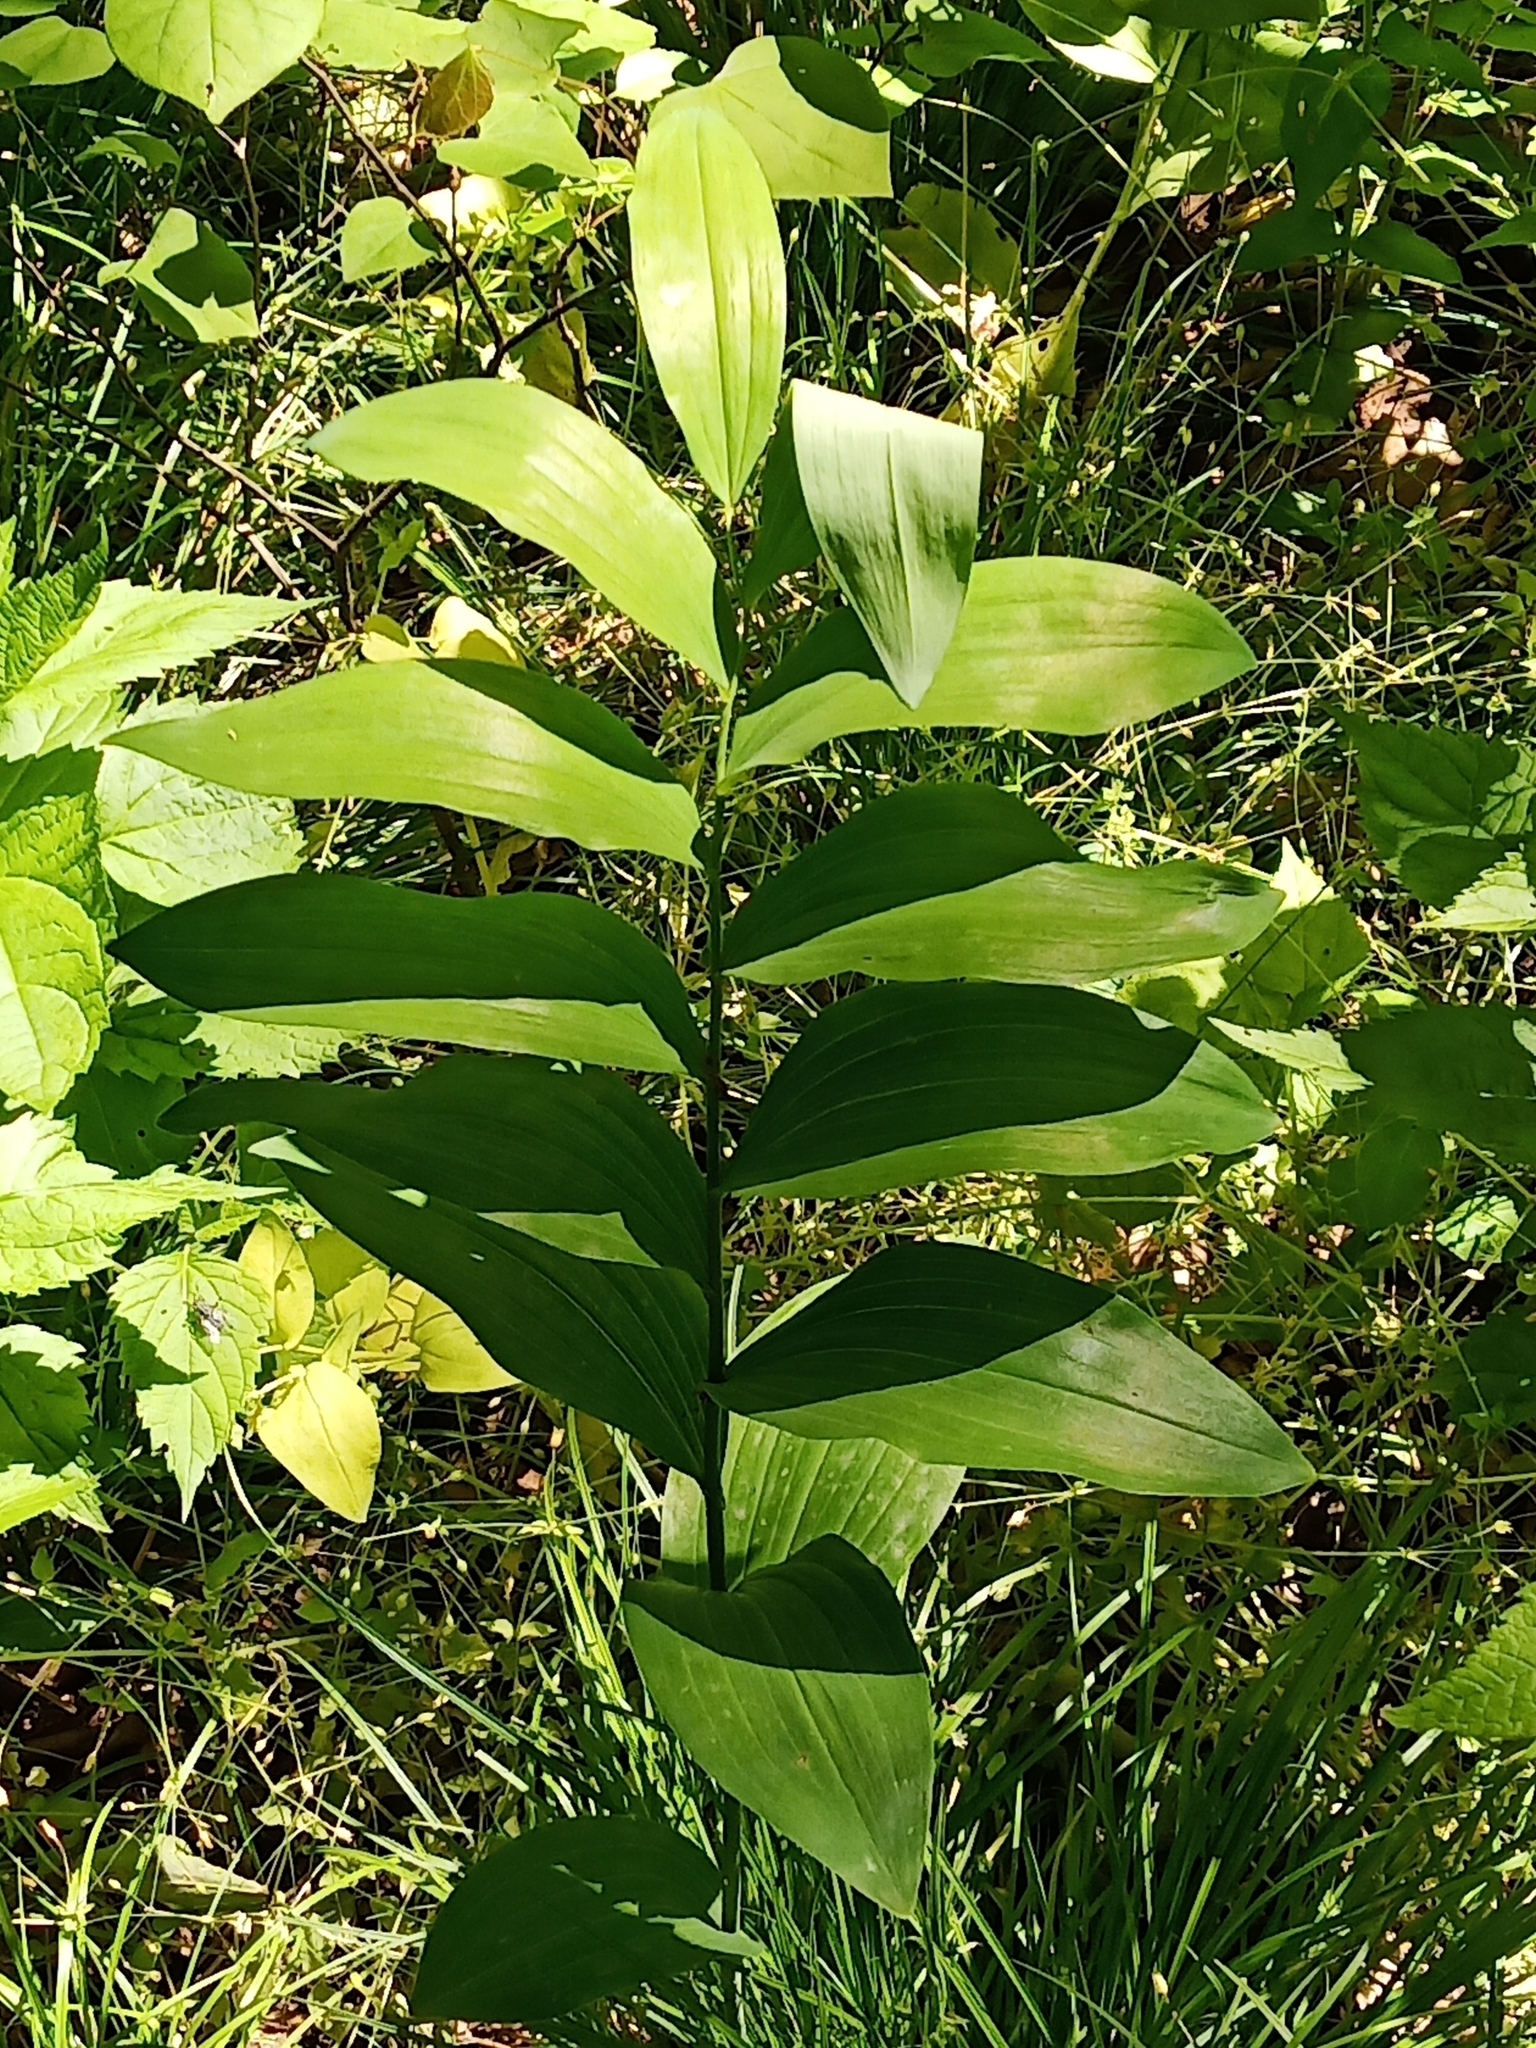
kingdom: Plantae
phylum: Tracheophyta
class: Liliopsida
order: Asparagales
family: Asparagaceae
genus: Polygonatum
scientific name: Polygonatum biflorum
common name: American solomon's-seal
